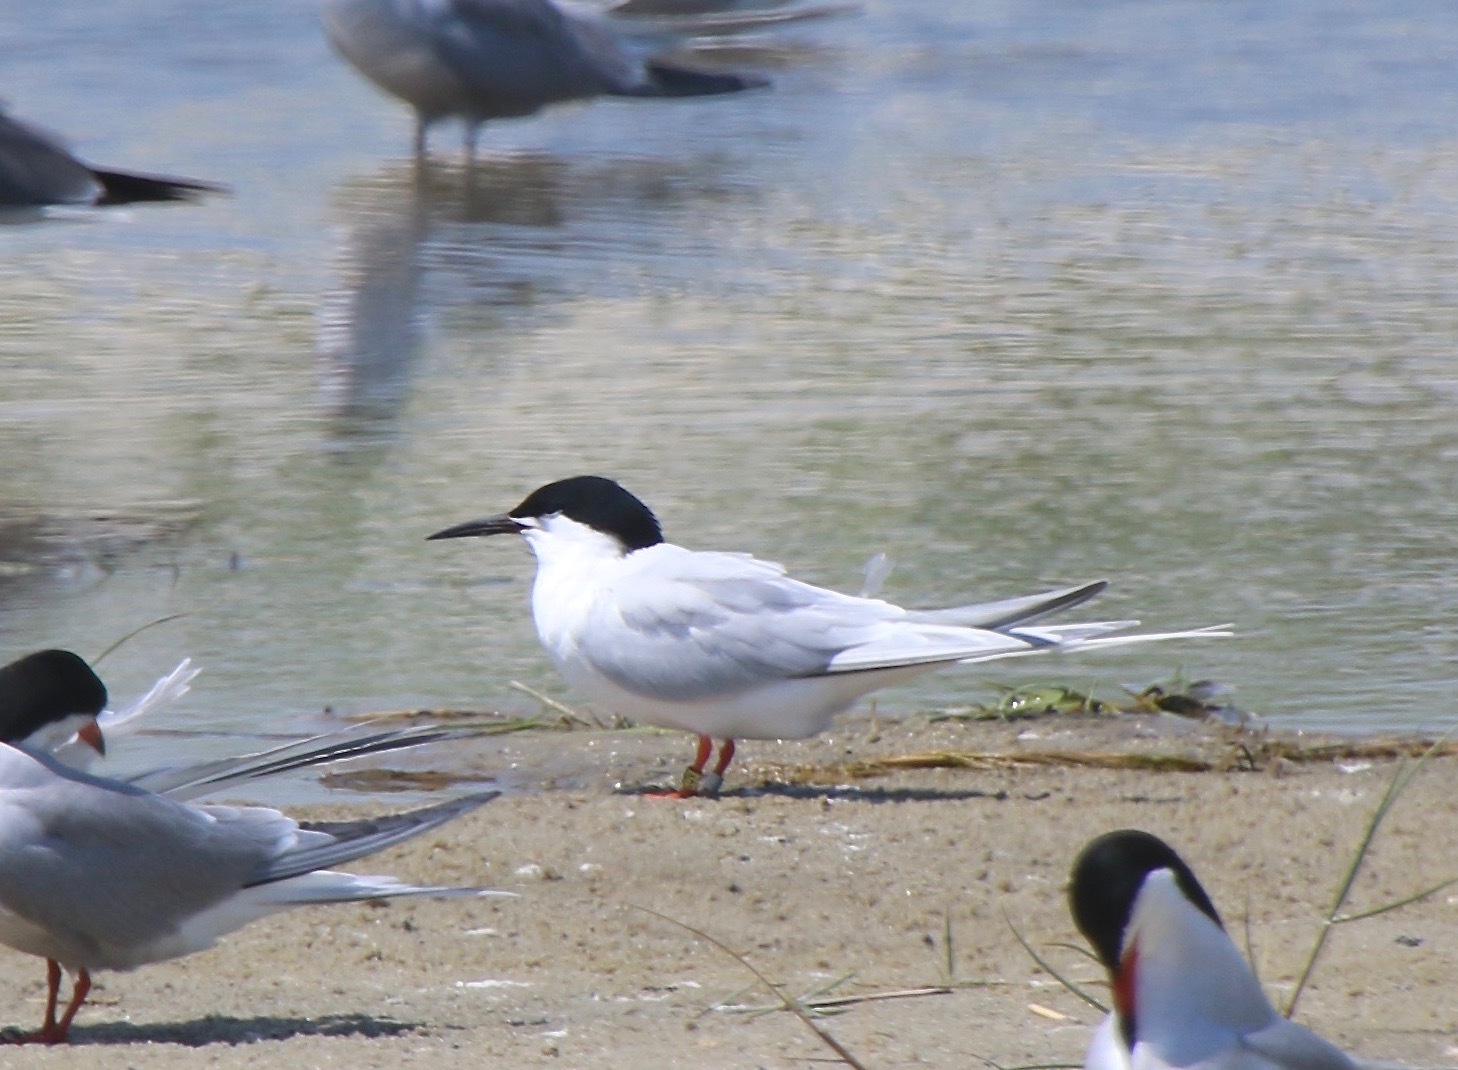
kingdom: Animalia
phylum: Chordata
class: Aves
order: Charadriiformes
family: Laridae
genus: Sterna
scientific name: Sterna dougallii
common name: Roseate tern
